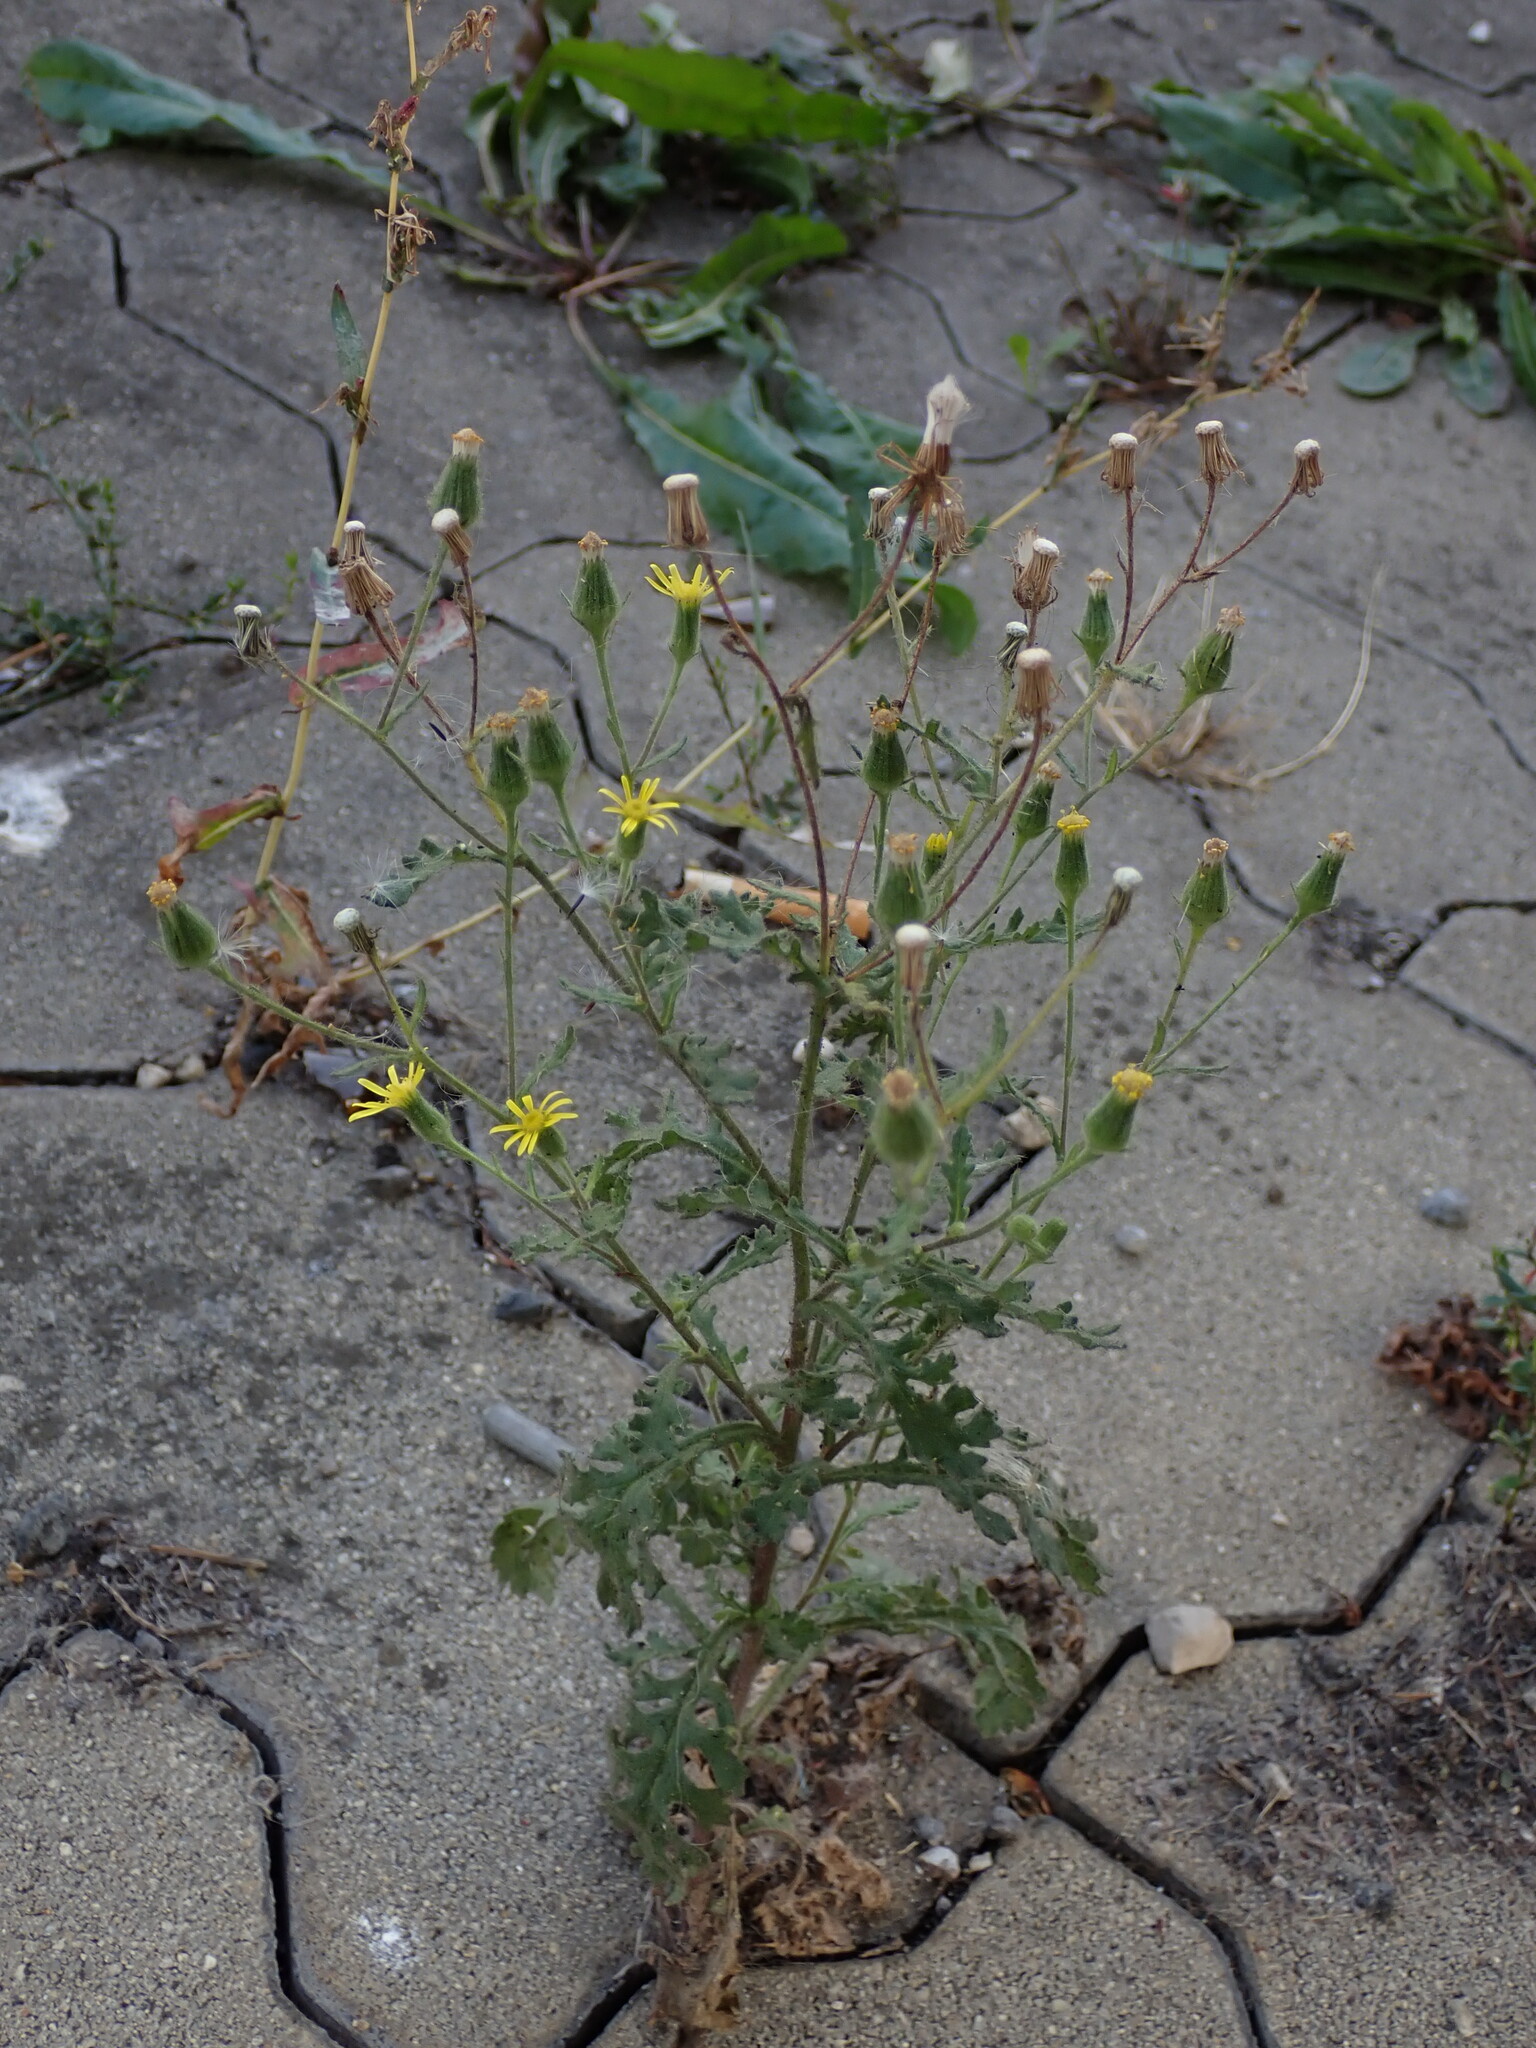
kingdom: Plantae
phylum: Tracheophyta
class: Magnoliopsida
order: Asterales
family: Asteraceae
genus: Senecio
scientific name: Senecio viscosus
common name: Sticky groundsel
